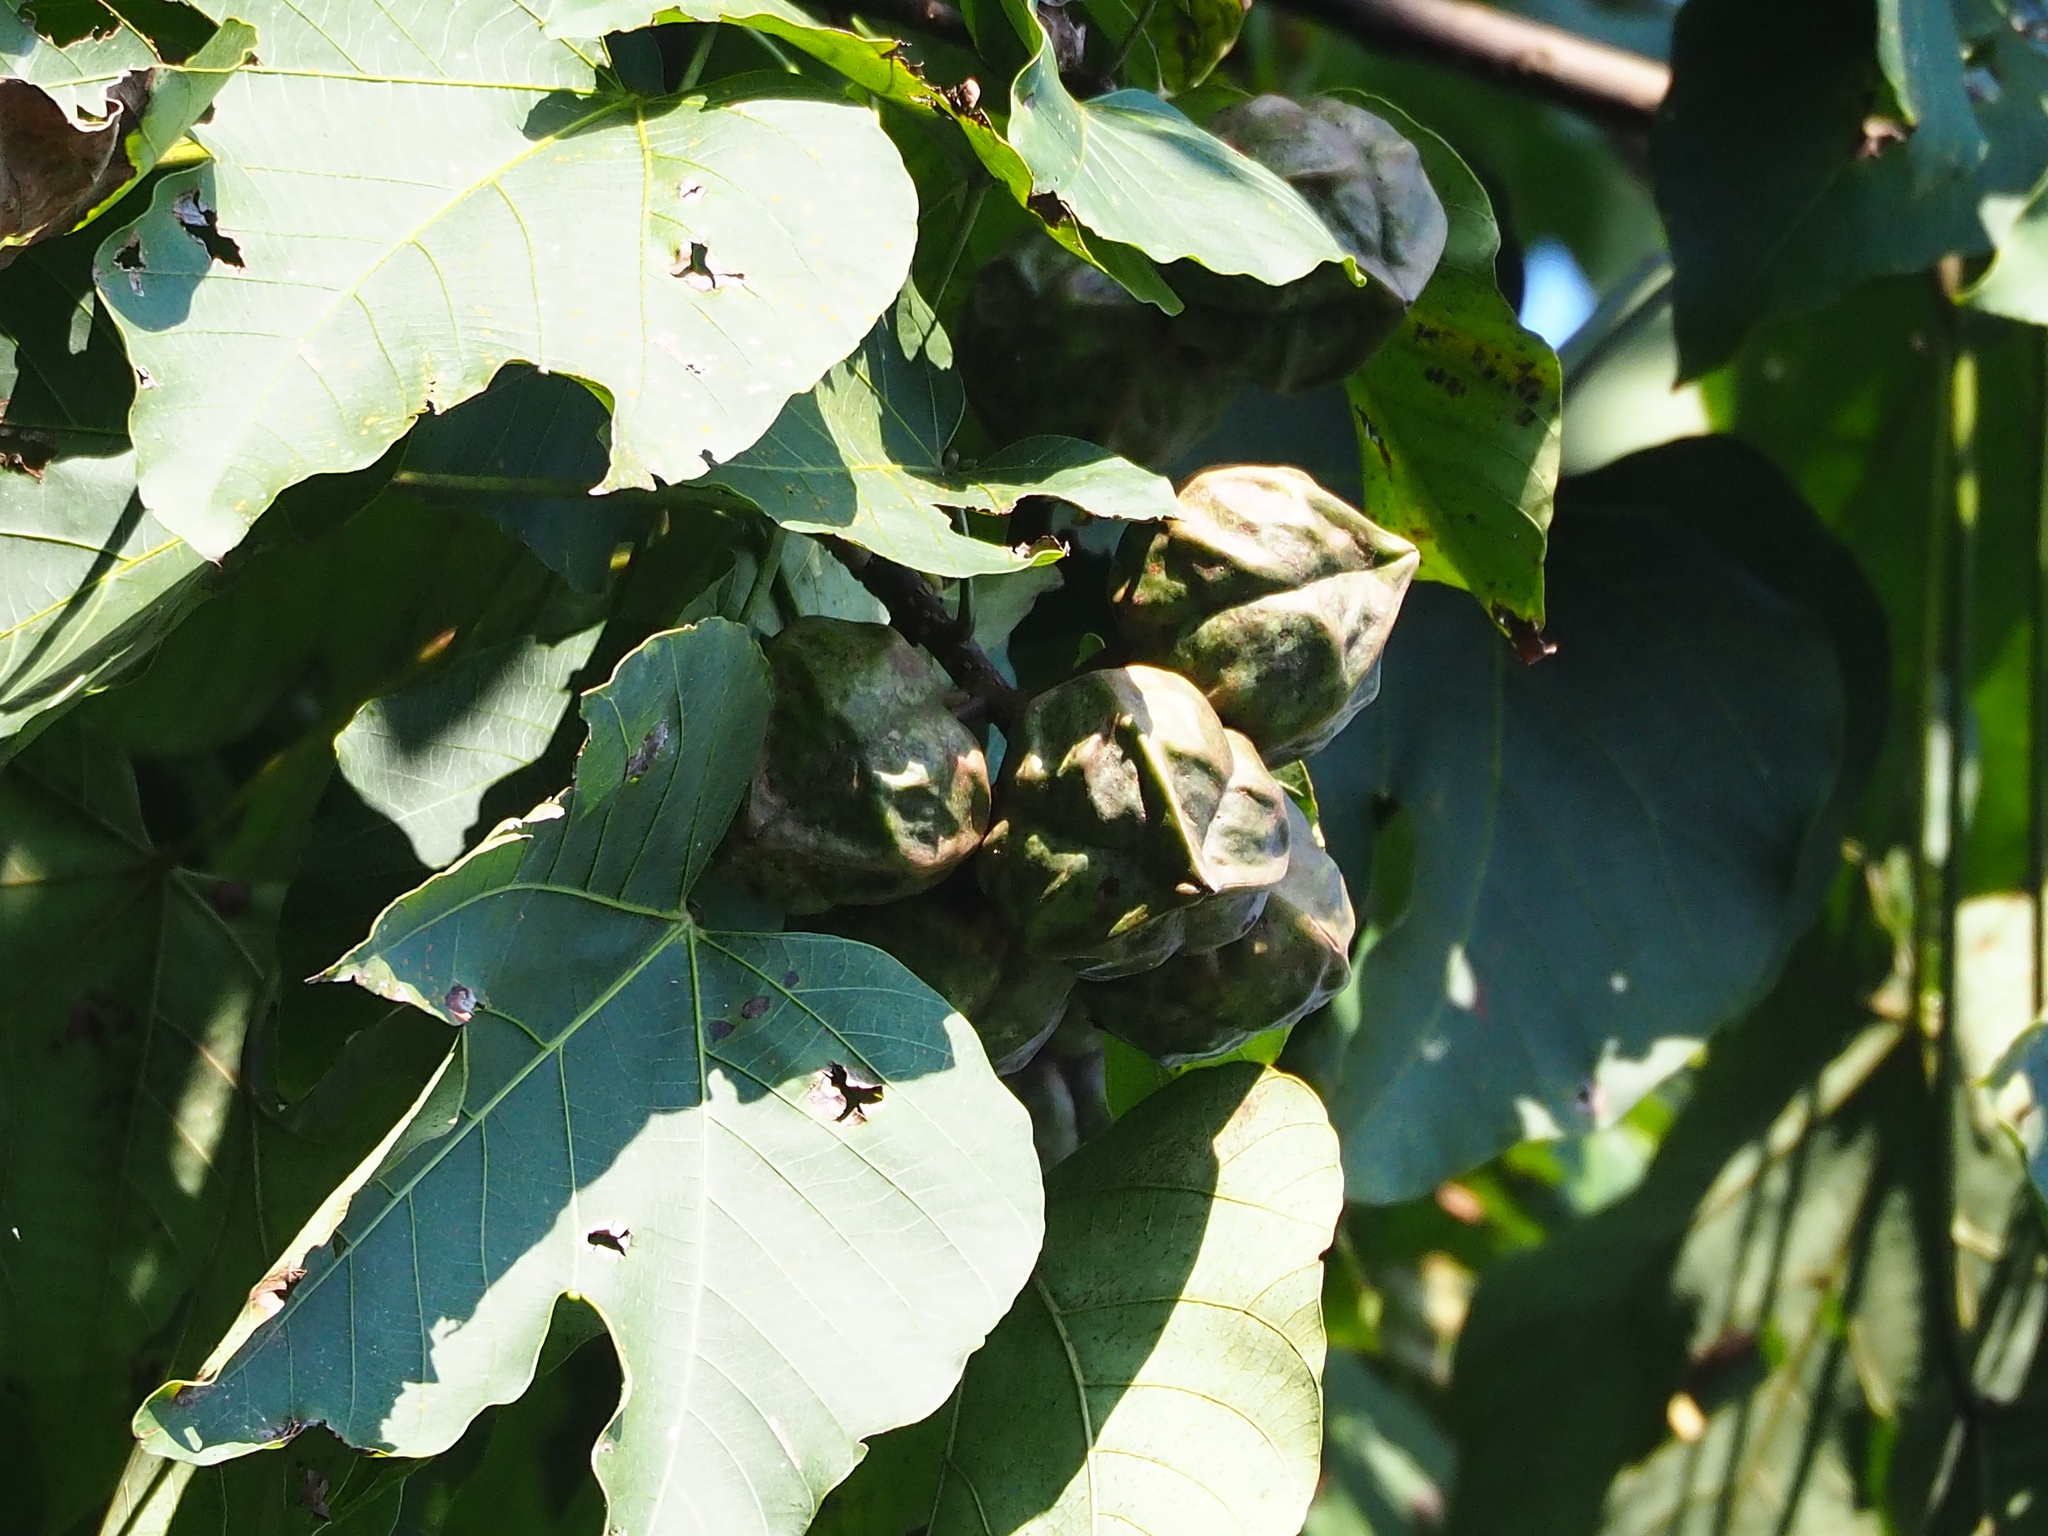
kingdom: Plantae
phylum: Tracheophyta
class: Magnoliopsida
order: Malpighiales
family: Euphorbiaceae
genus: Vernicia
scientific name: Vernicia montana
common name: Mu oil tree
